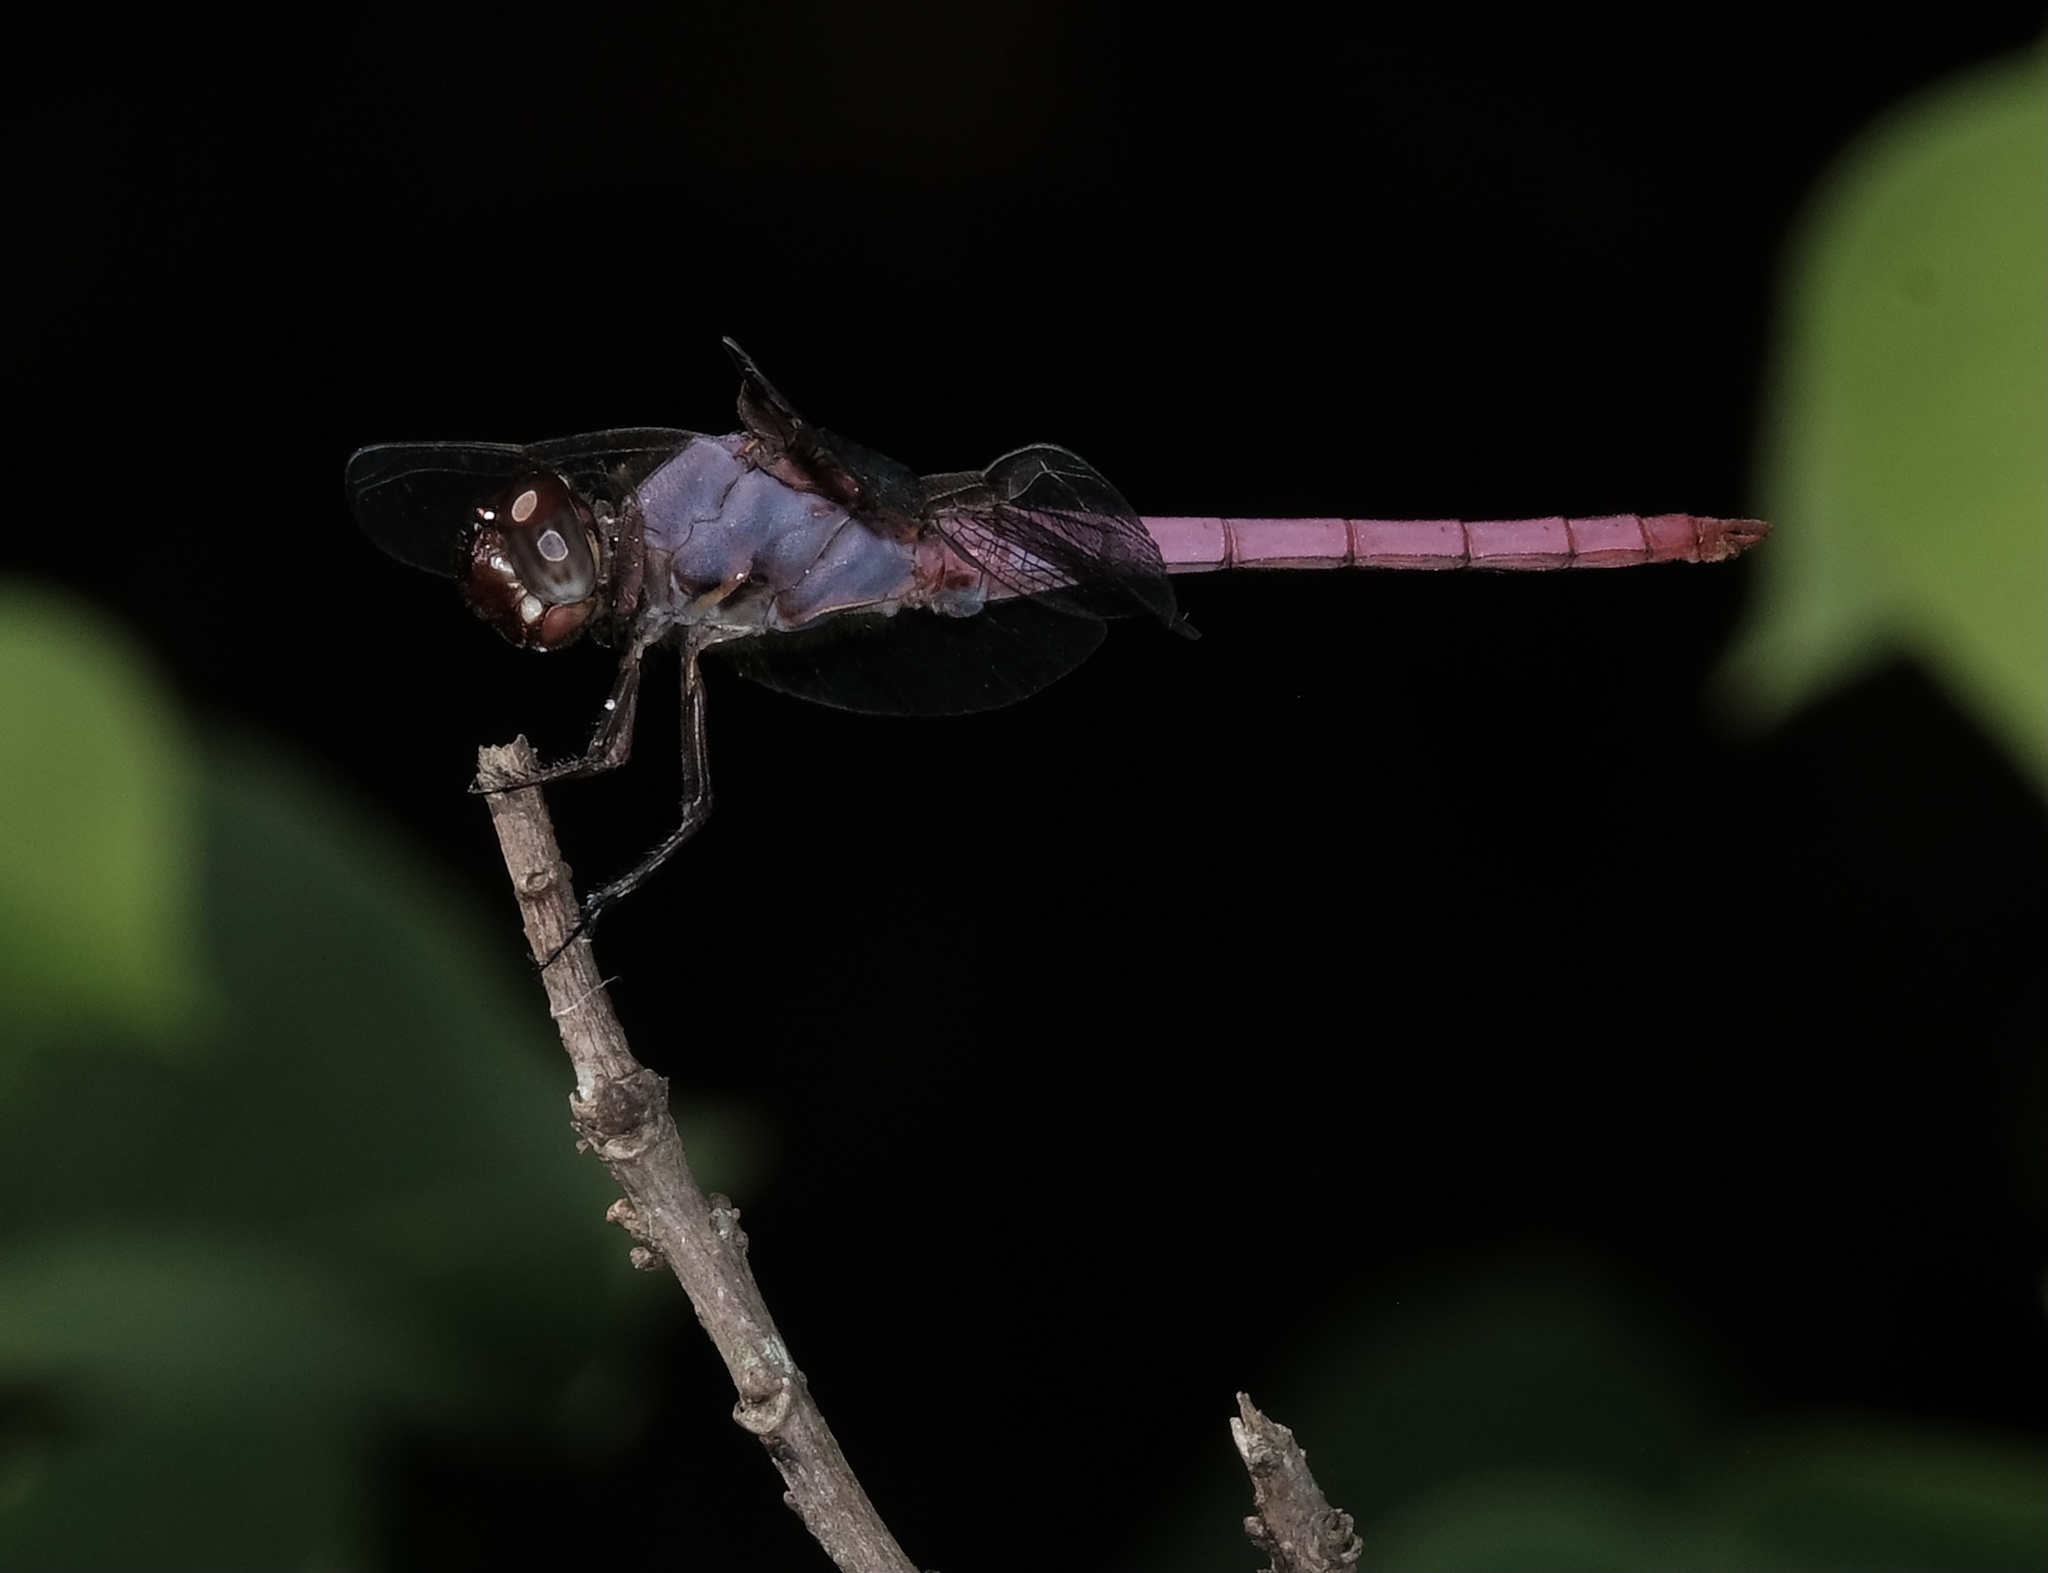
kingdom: Animalia
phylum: Arthropoda
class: Insecta
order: Odonata
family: Libellulidae
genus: Orthemis
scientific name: Orthemis ferruginea
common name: Roseate skimmer
